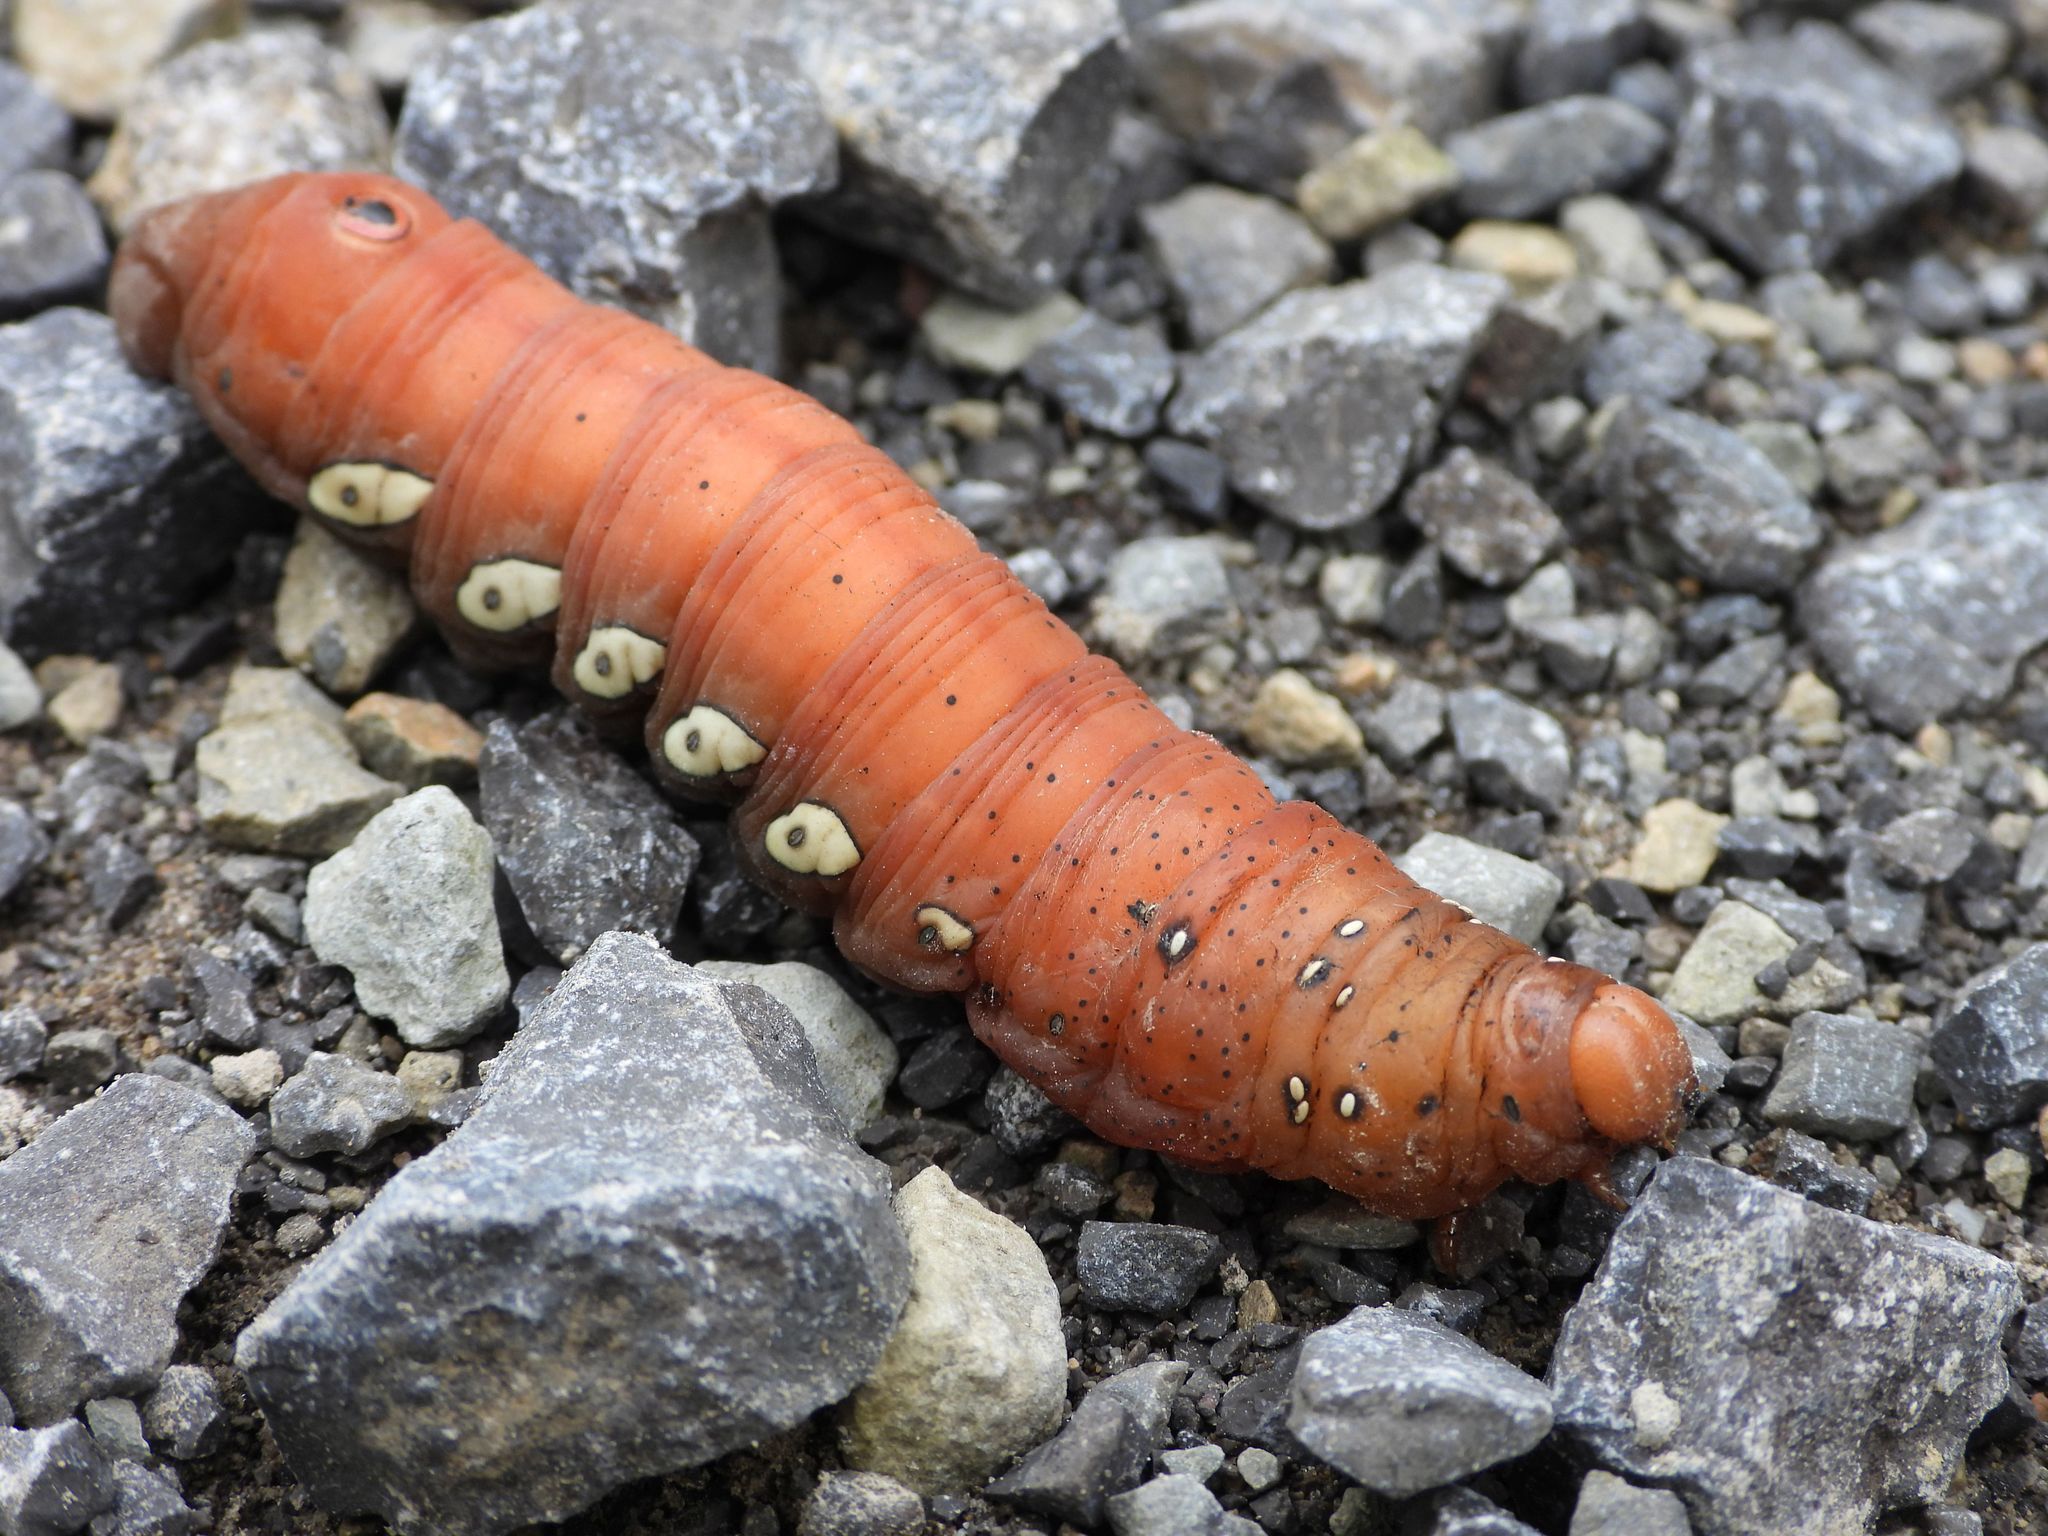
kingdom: Animalia
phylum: Arthropoda
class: Insecta
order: Lepidoptera
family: Sphingidae
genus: Eumorpha
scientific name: Eumorpha pandorus
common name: Pandora sphinx
